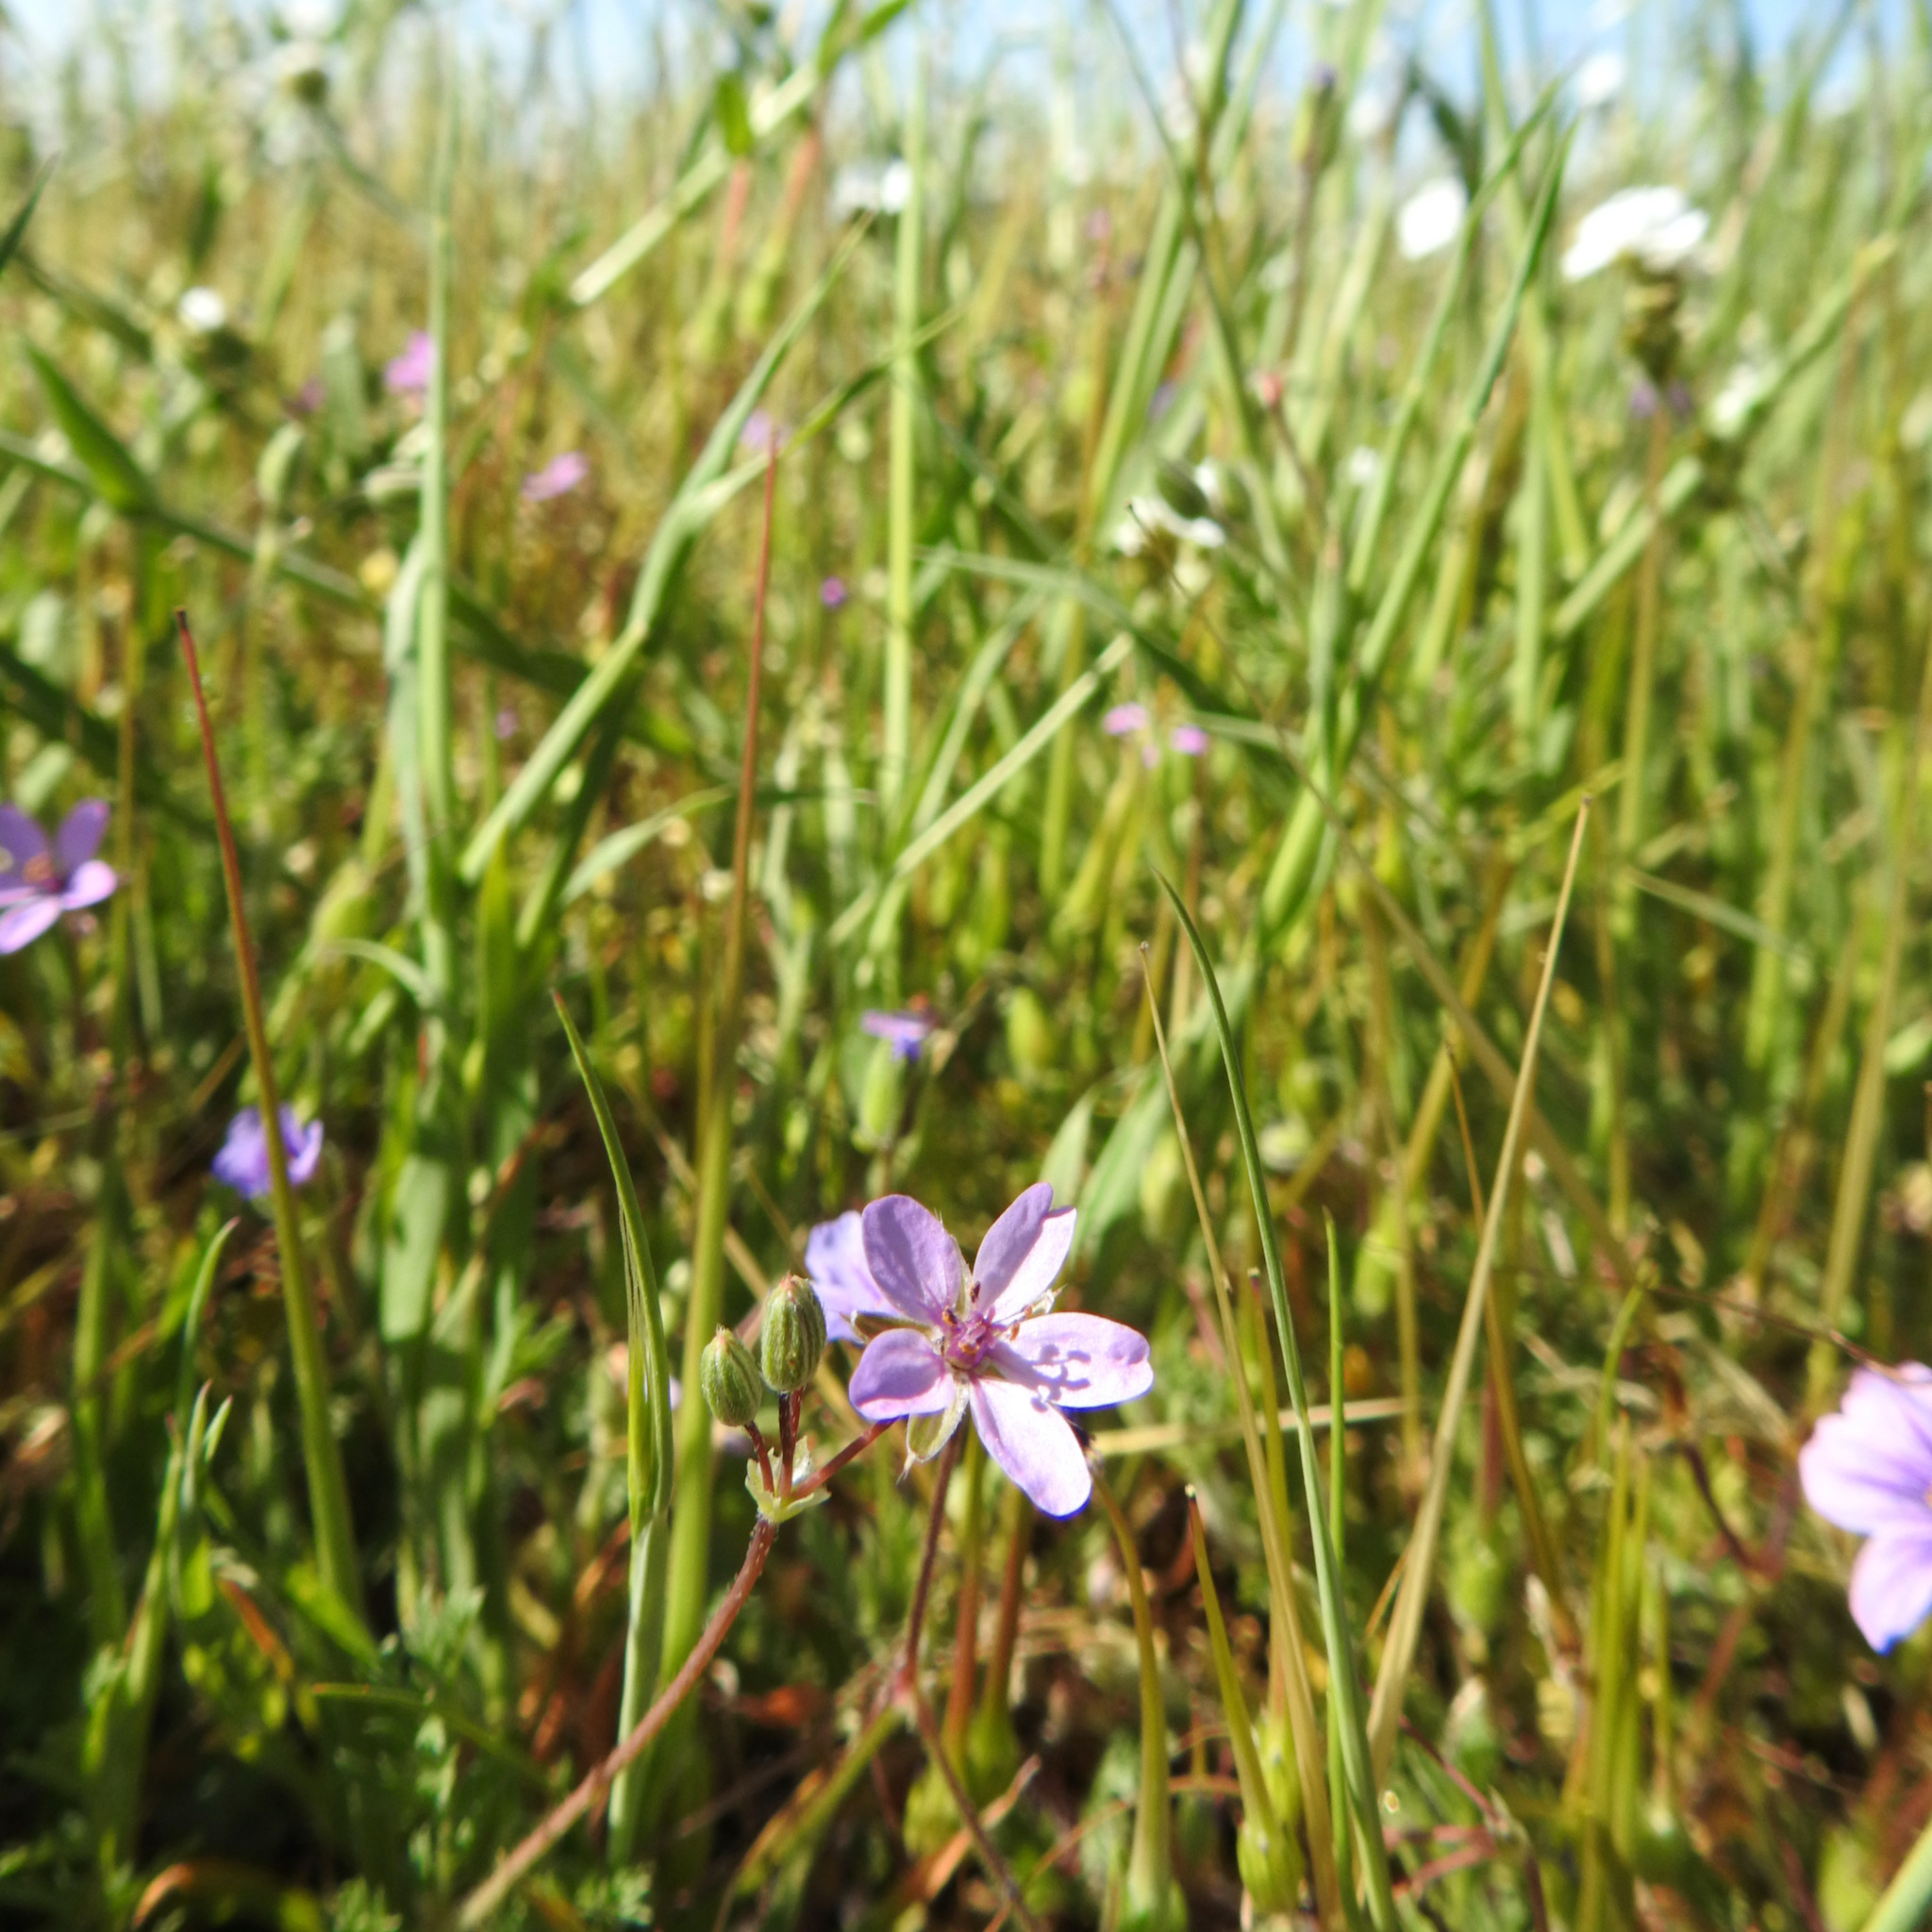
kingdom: Plantae
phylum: Tracheophyta
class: Magnoliopsida
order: Geraniales
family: Geraniaceae
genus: Erodium
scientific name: Erodium cicutarium
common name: Common stork's-bill
